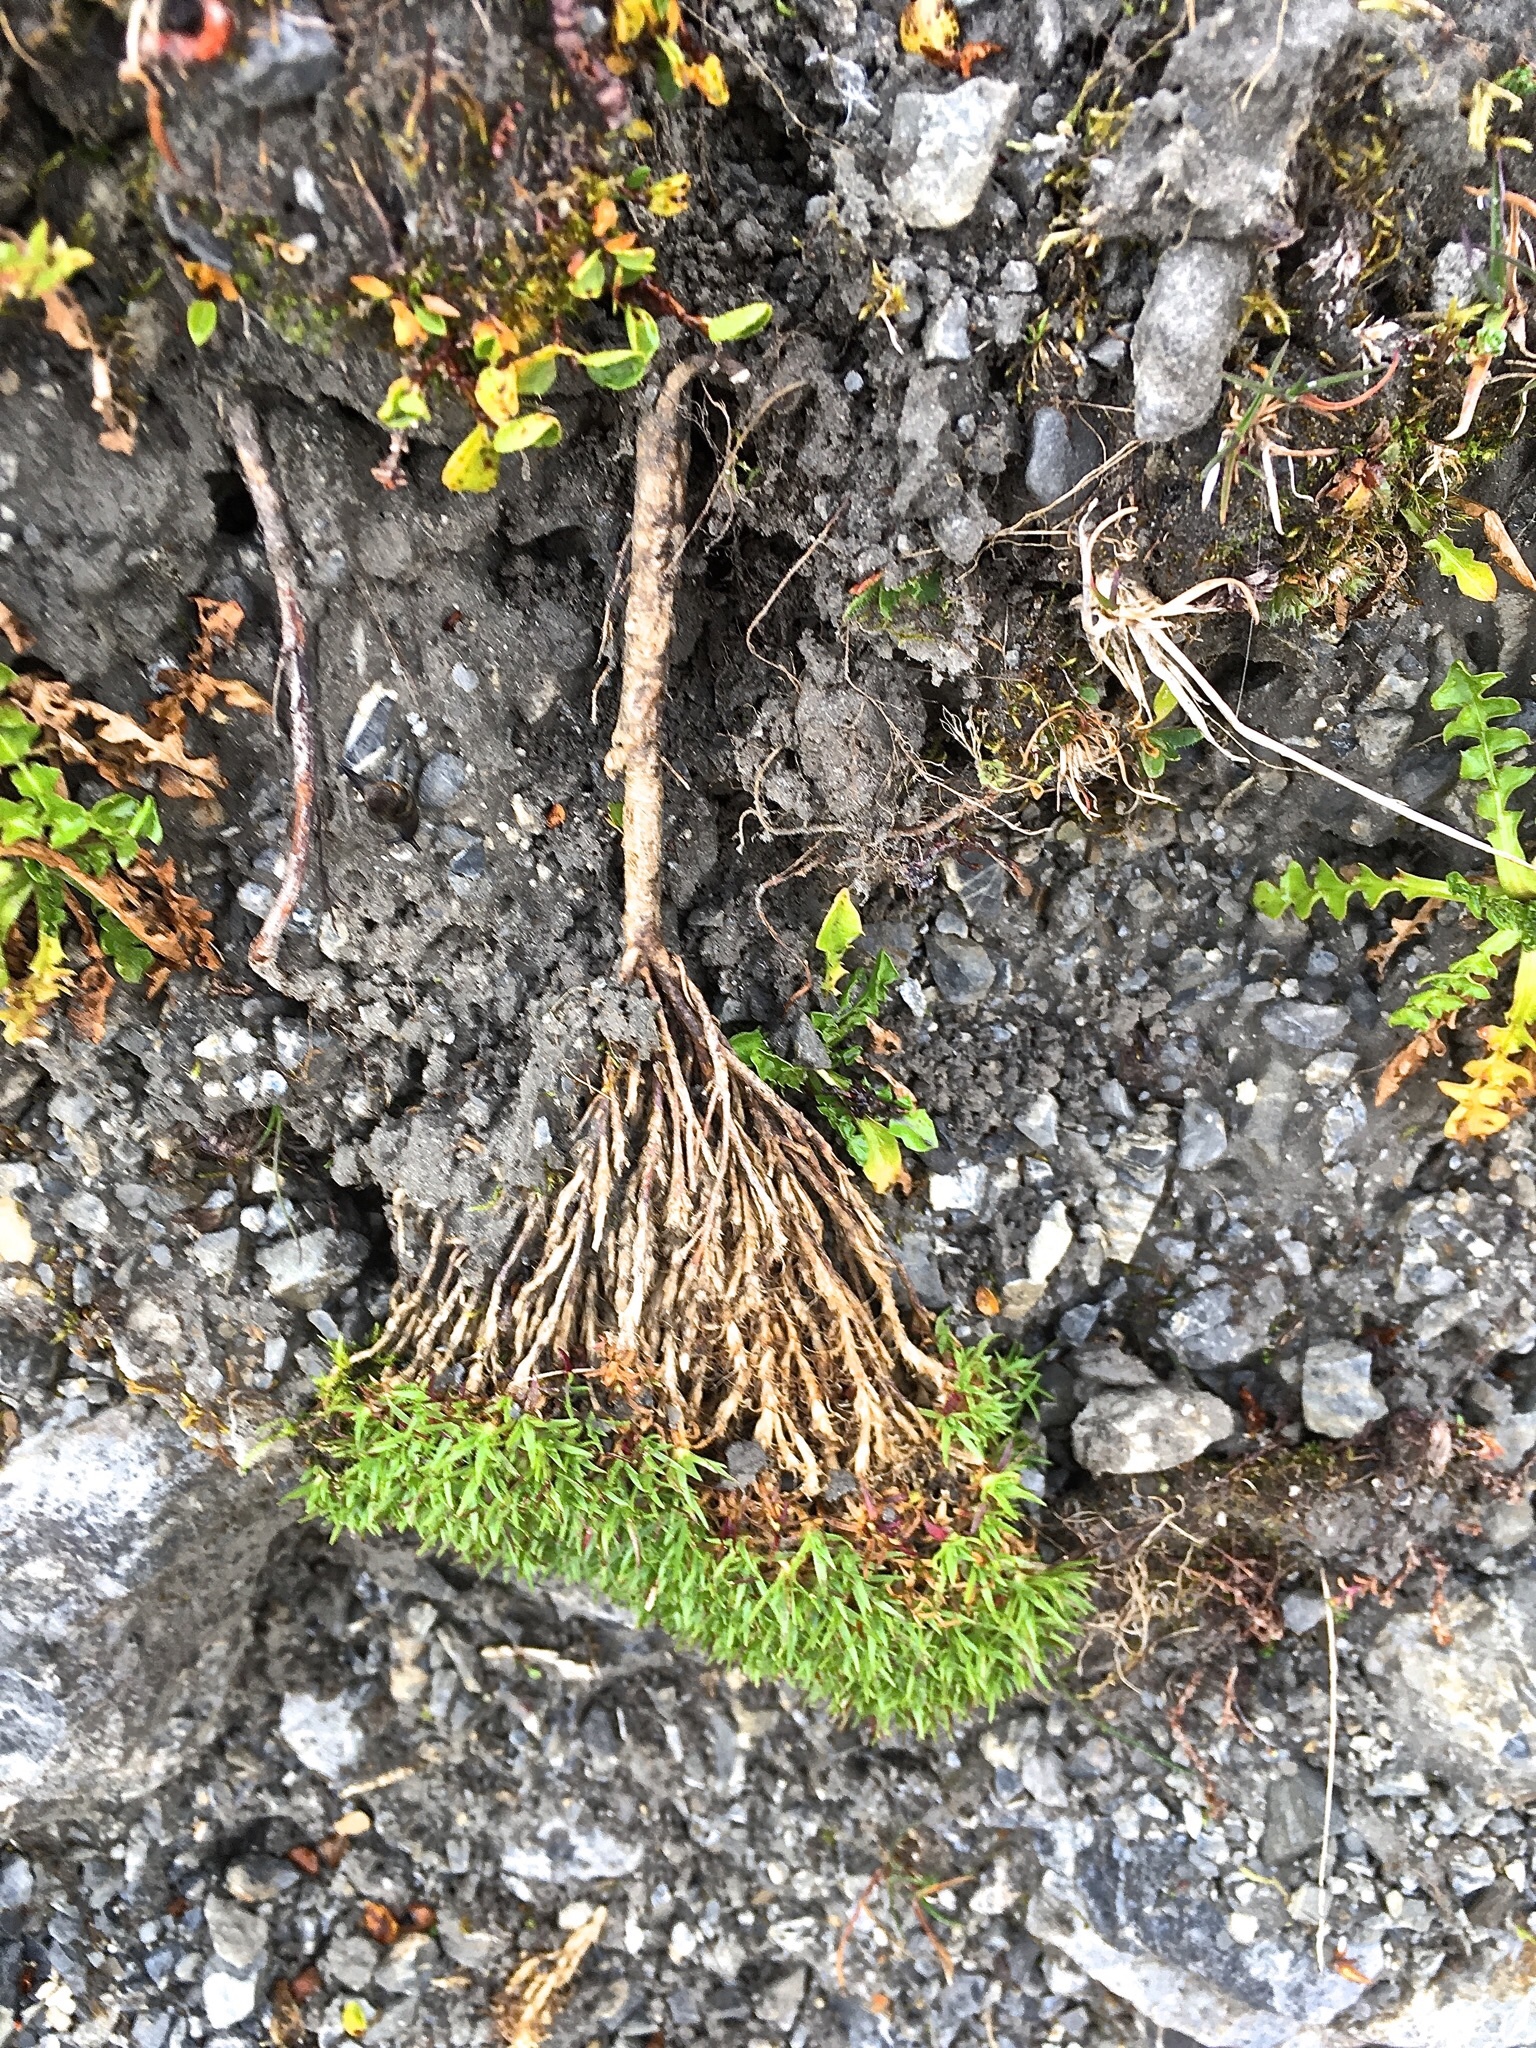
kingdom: Plantae
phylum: Tracheophyta
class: Magnoliopsida
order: Caryophyllales
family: Caryophyllaceae
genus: Silene
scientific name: Silene acaulis
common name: Moss campion
